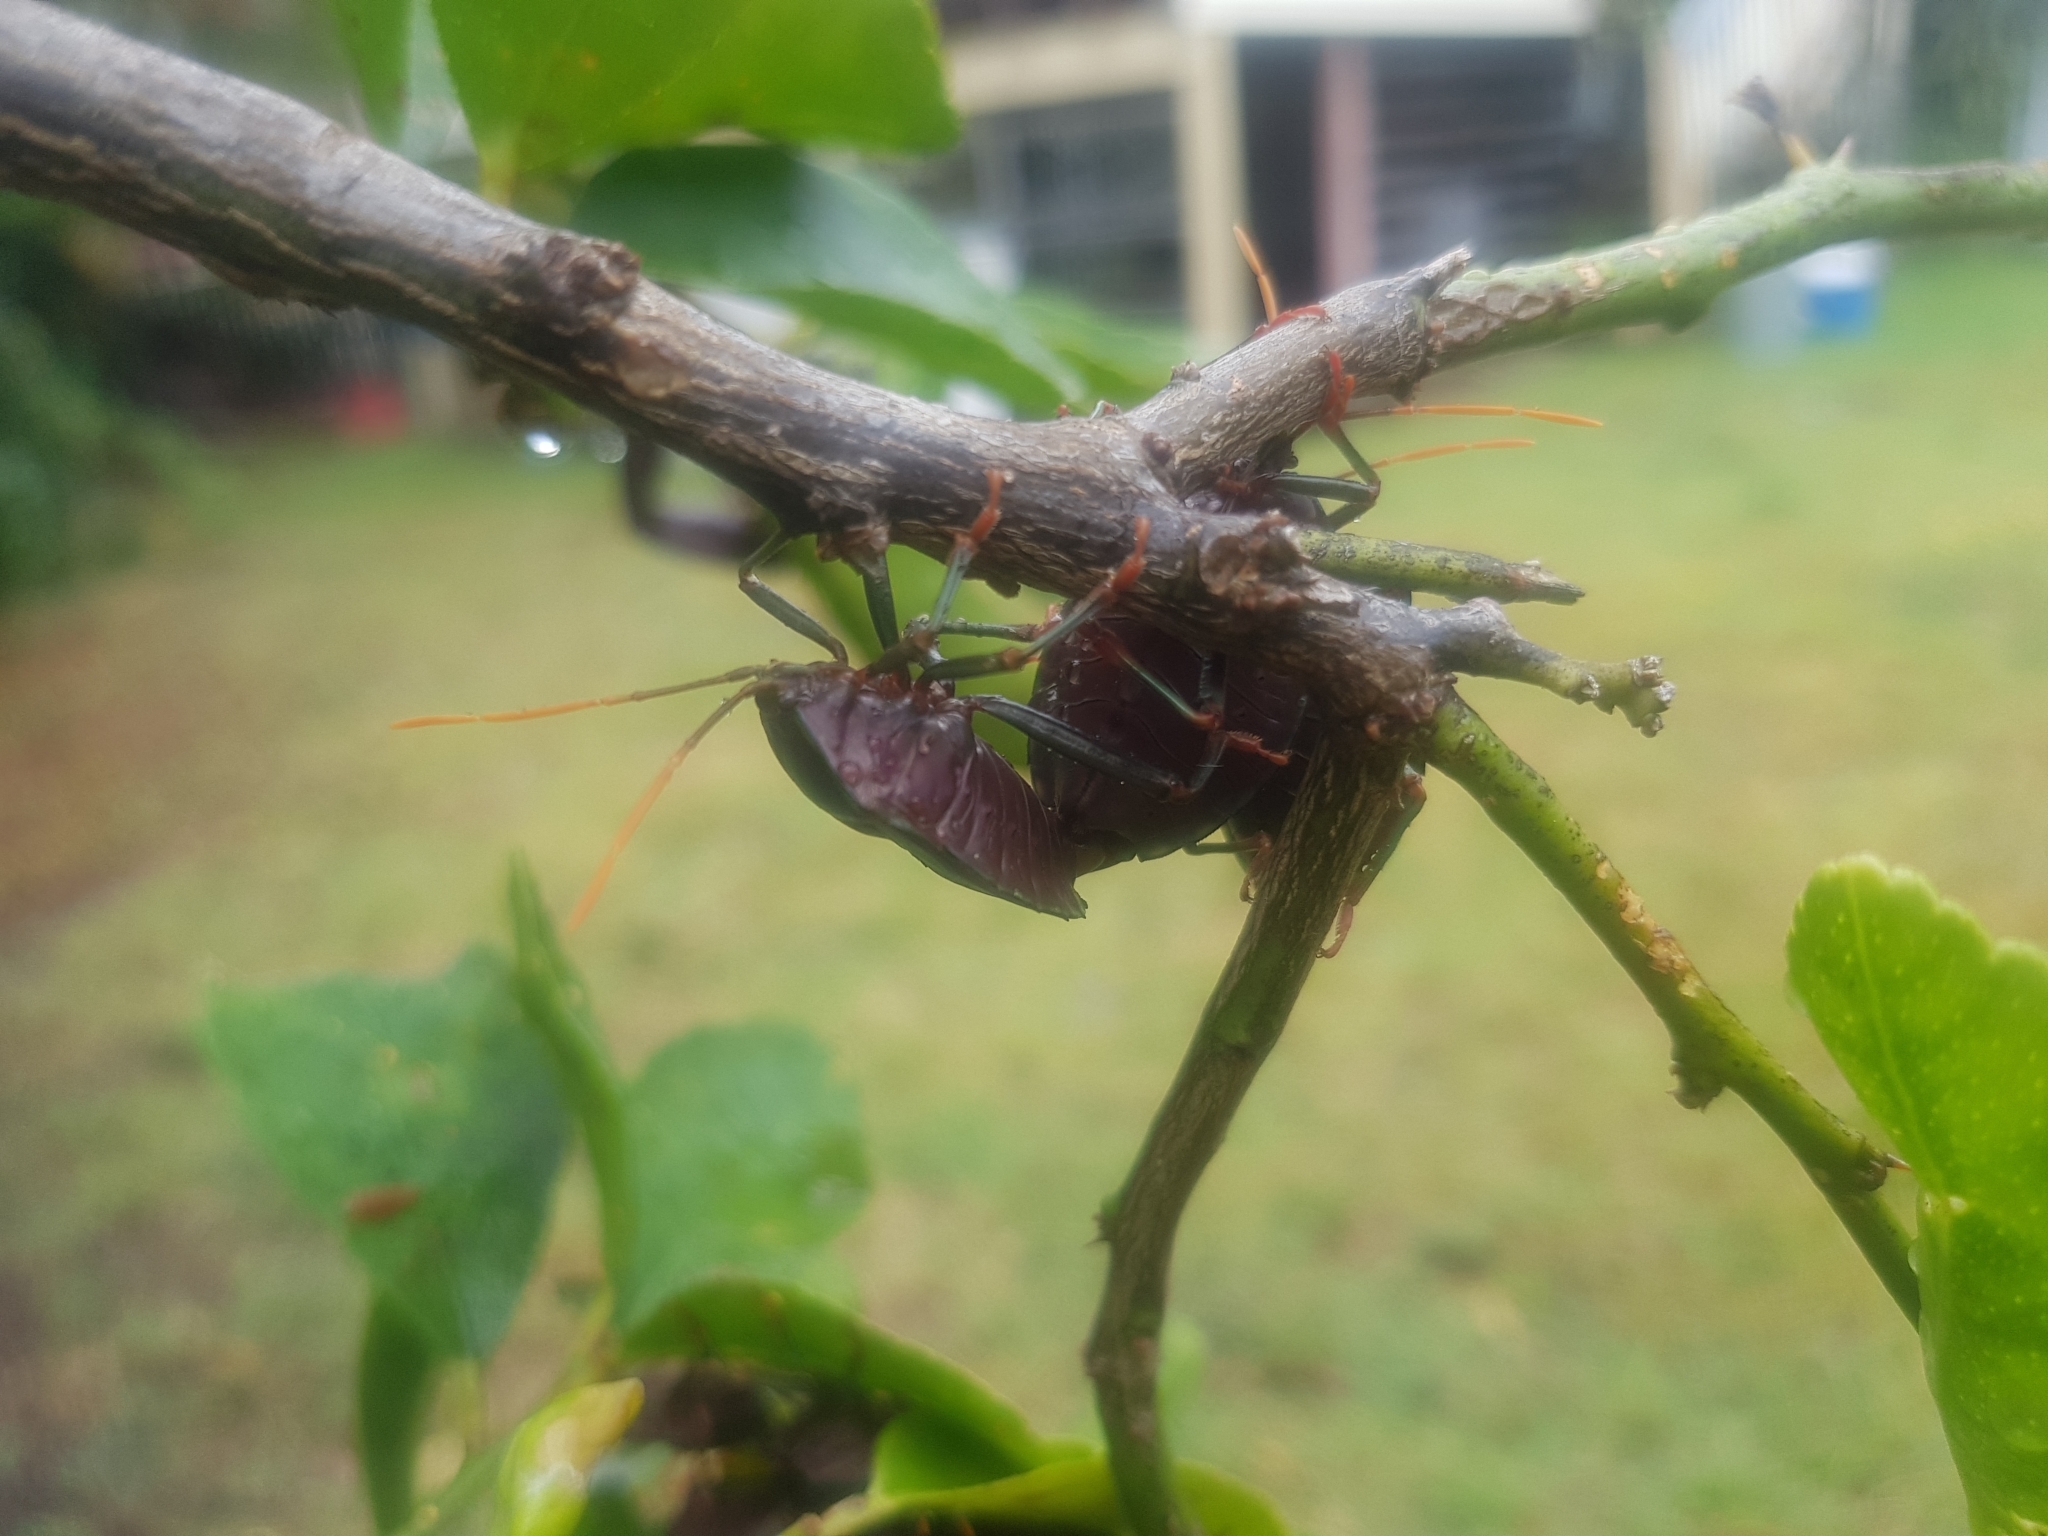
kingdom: Animalia
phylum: Arthropoda
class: Insecta
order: Hemiptera
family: Tessaratomidae
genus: Musgraveia
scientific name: Musgraveia sulciventris
